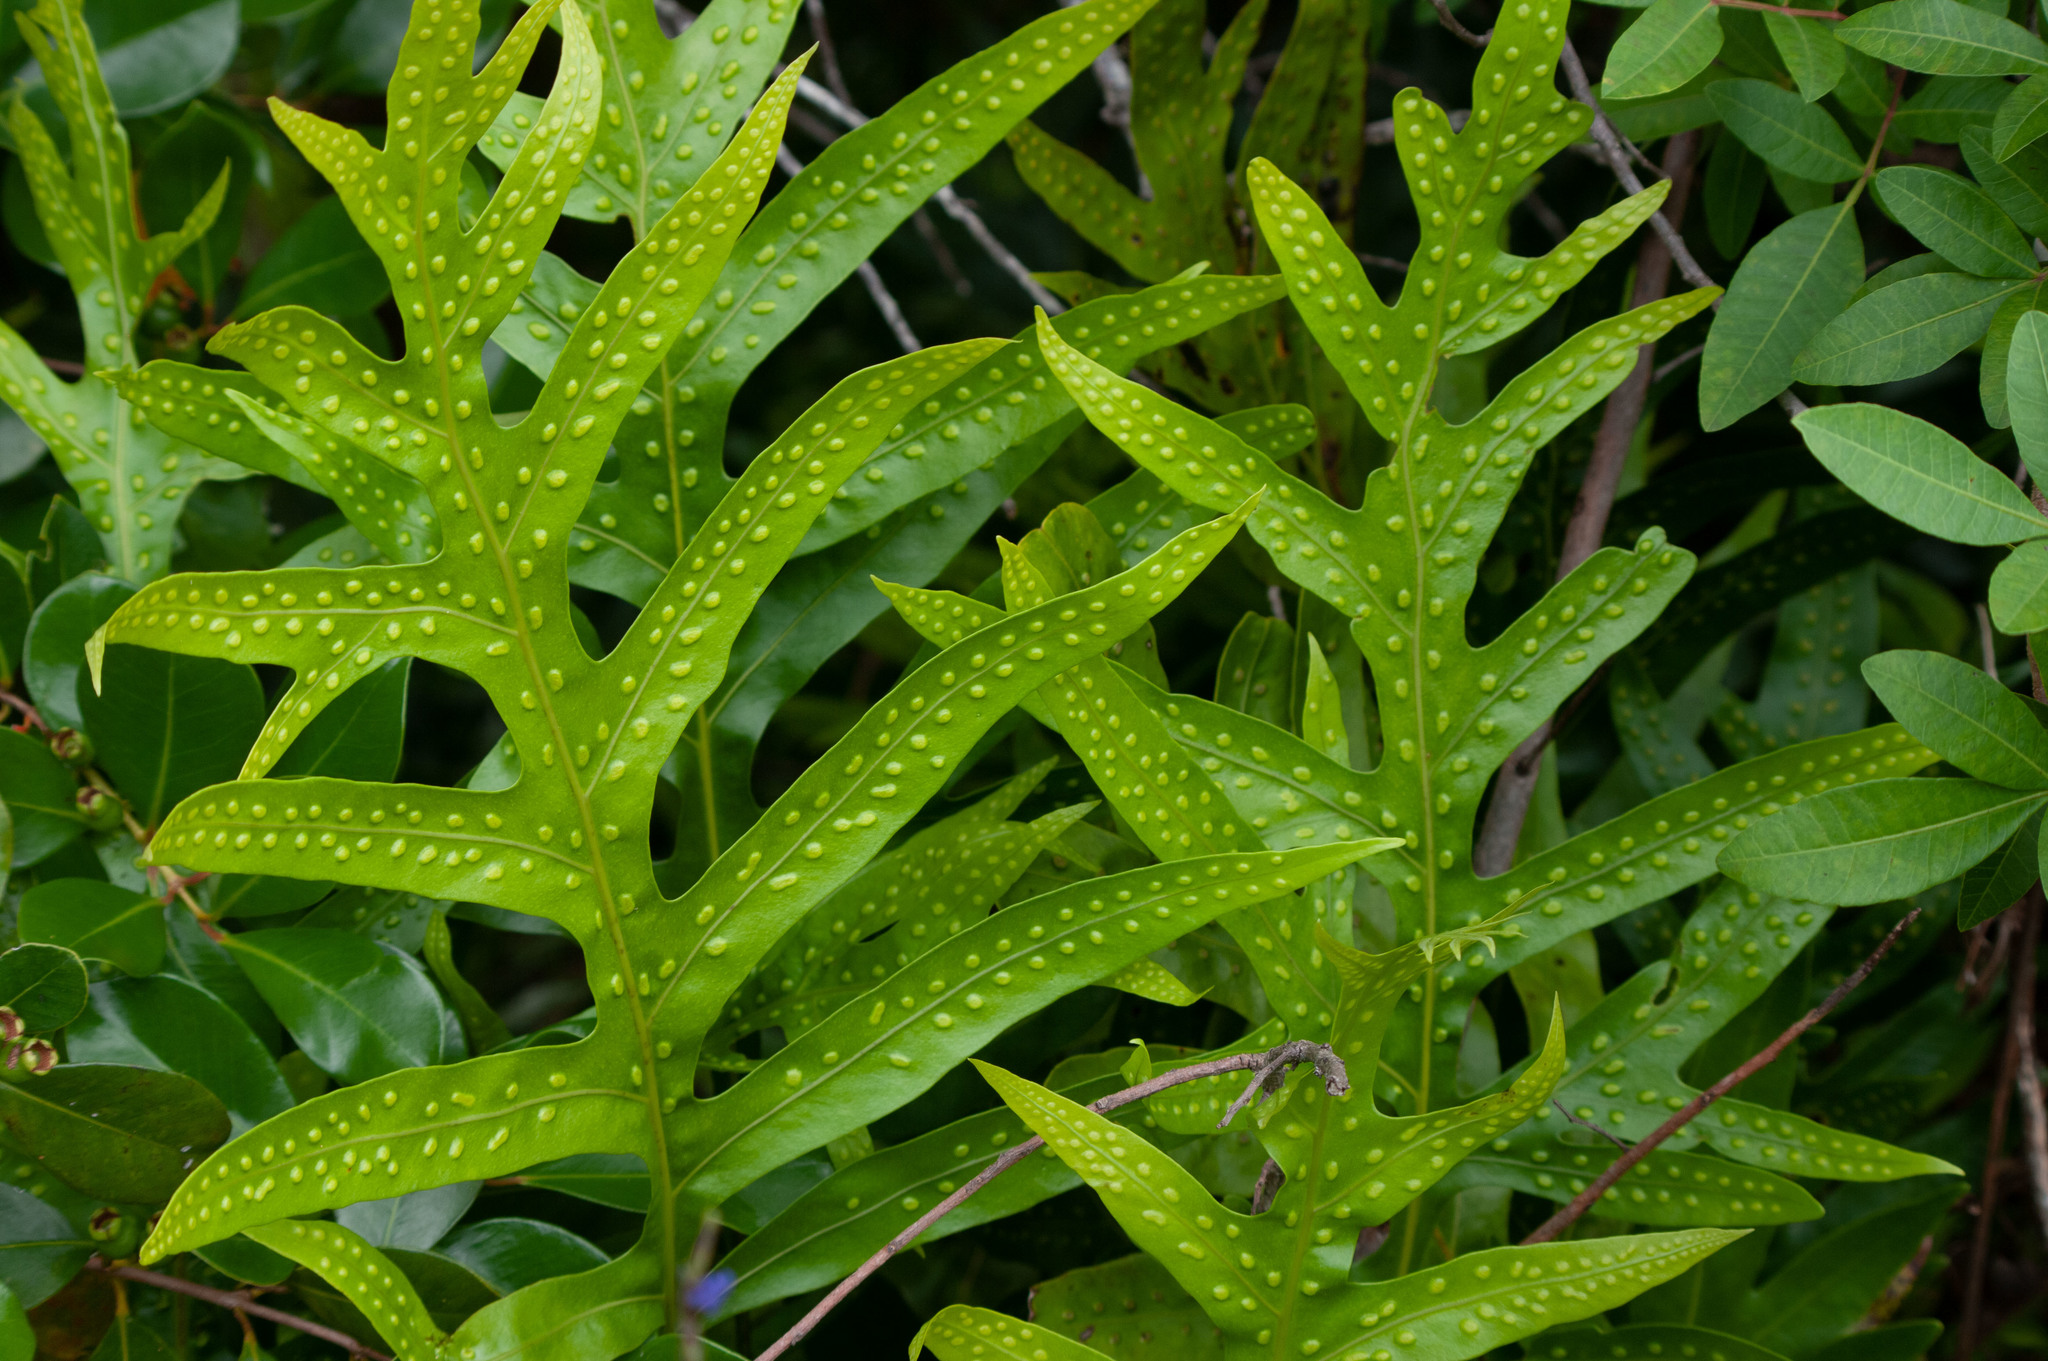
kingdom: Plantae
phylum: Tracheophyta
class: Polypodiopsida
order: Polypodiales
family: Polypodiaceae
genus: Microsorum
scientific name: Microsorum grossum
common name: Musk fern
